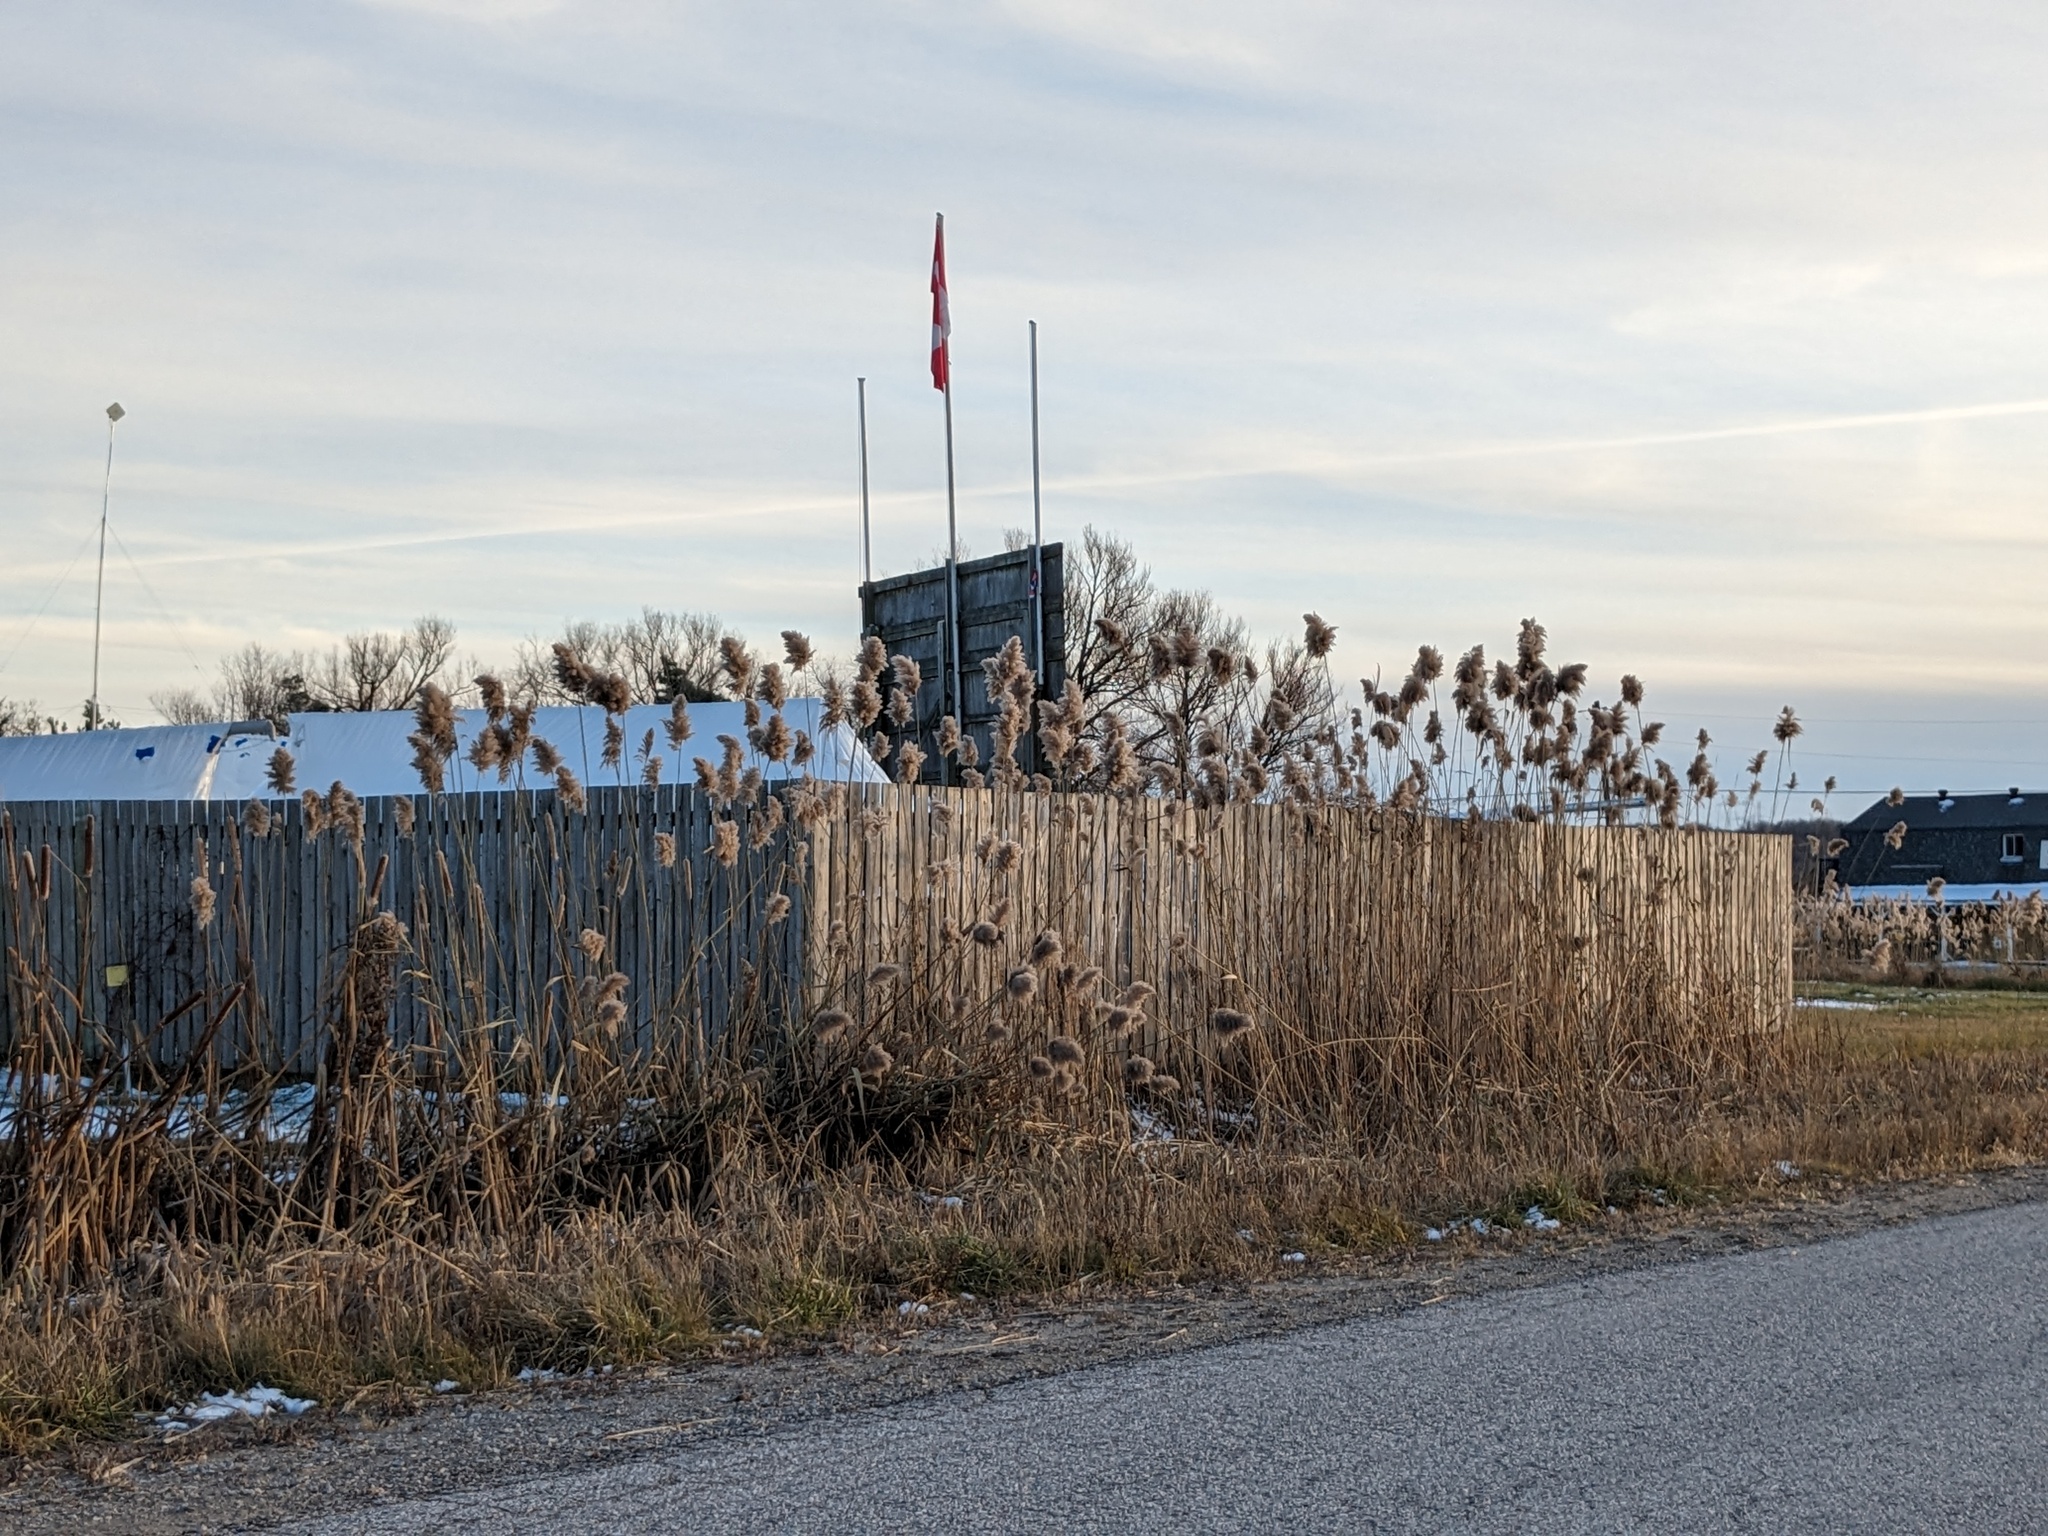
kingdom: Plantae
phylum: Tracheophyta
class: Liliopsida
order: Poales
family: Poaceae
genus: Phragmites
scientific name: Phragmites australis
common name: Common reed
